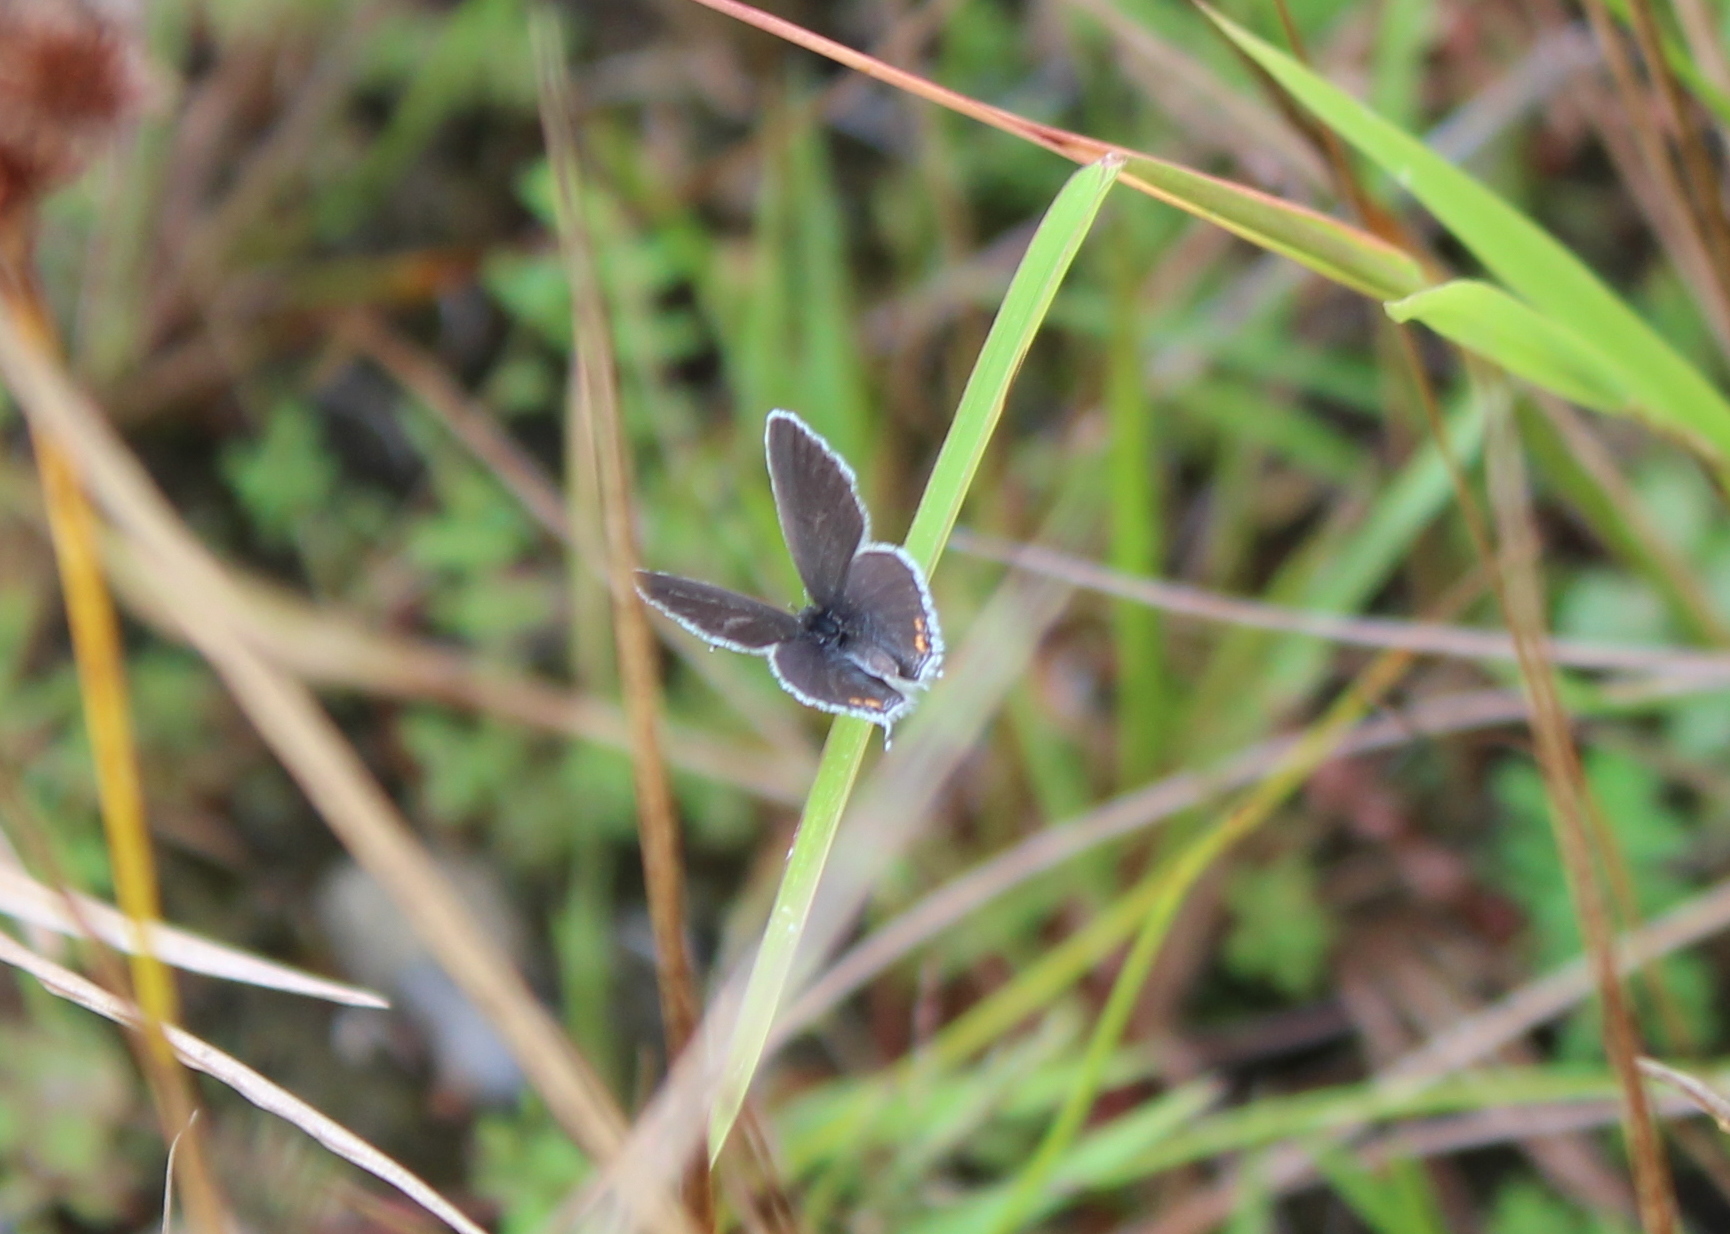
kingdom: Animalia
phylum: Arthropoda
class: Insecta
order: Lepidoptera
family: Lycaenidae
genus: Elkalyce
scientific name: Elkalyce comyntas
